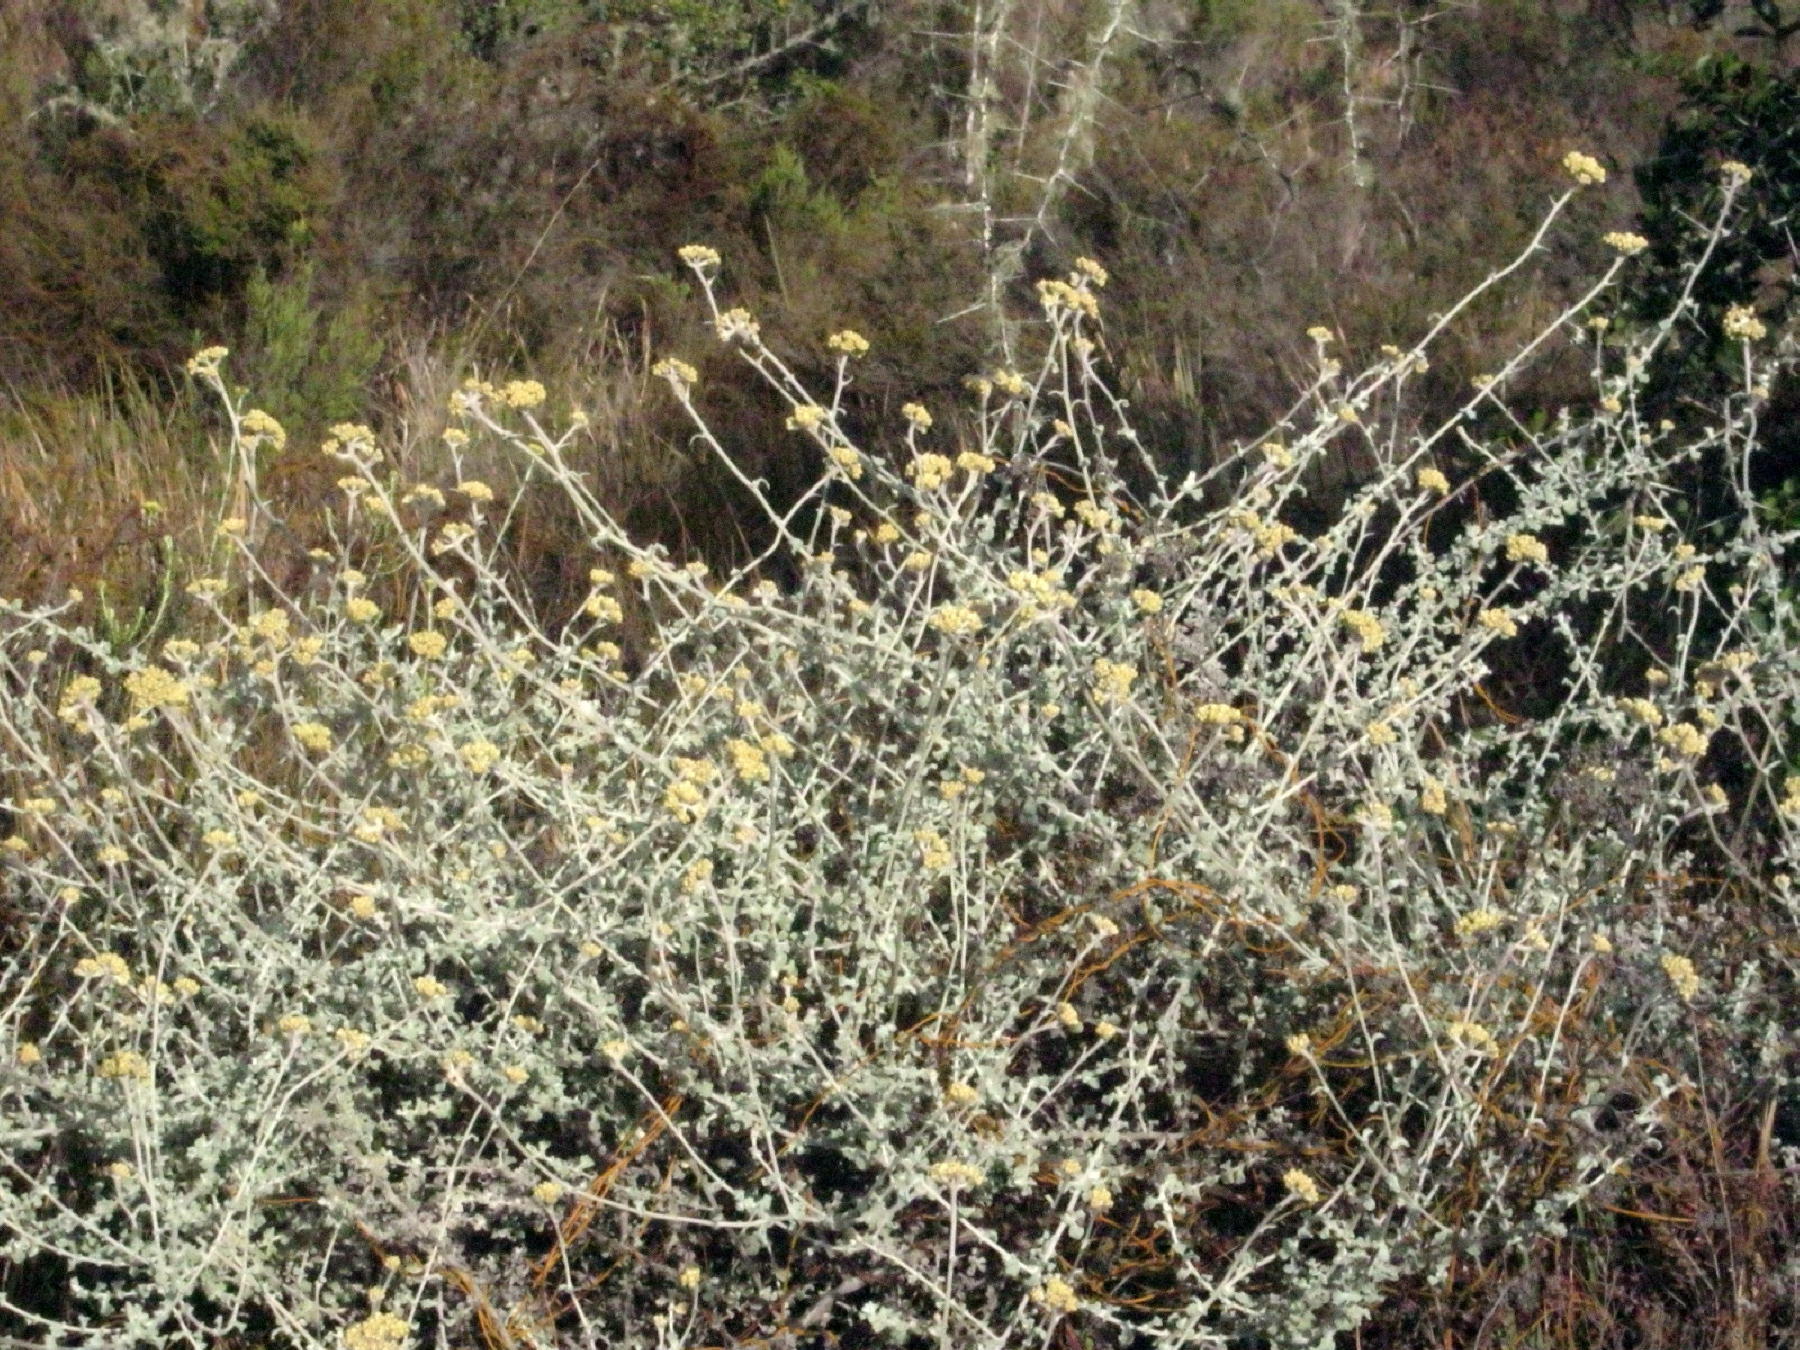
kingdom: Plantae
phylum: Tracheophyta
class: Magnoliopsida
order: Asterales
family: Asteraceae
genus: Helichrysum
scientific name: Helichrysum patulum
